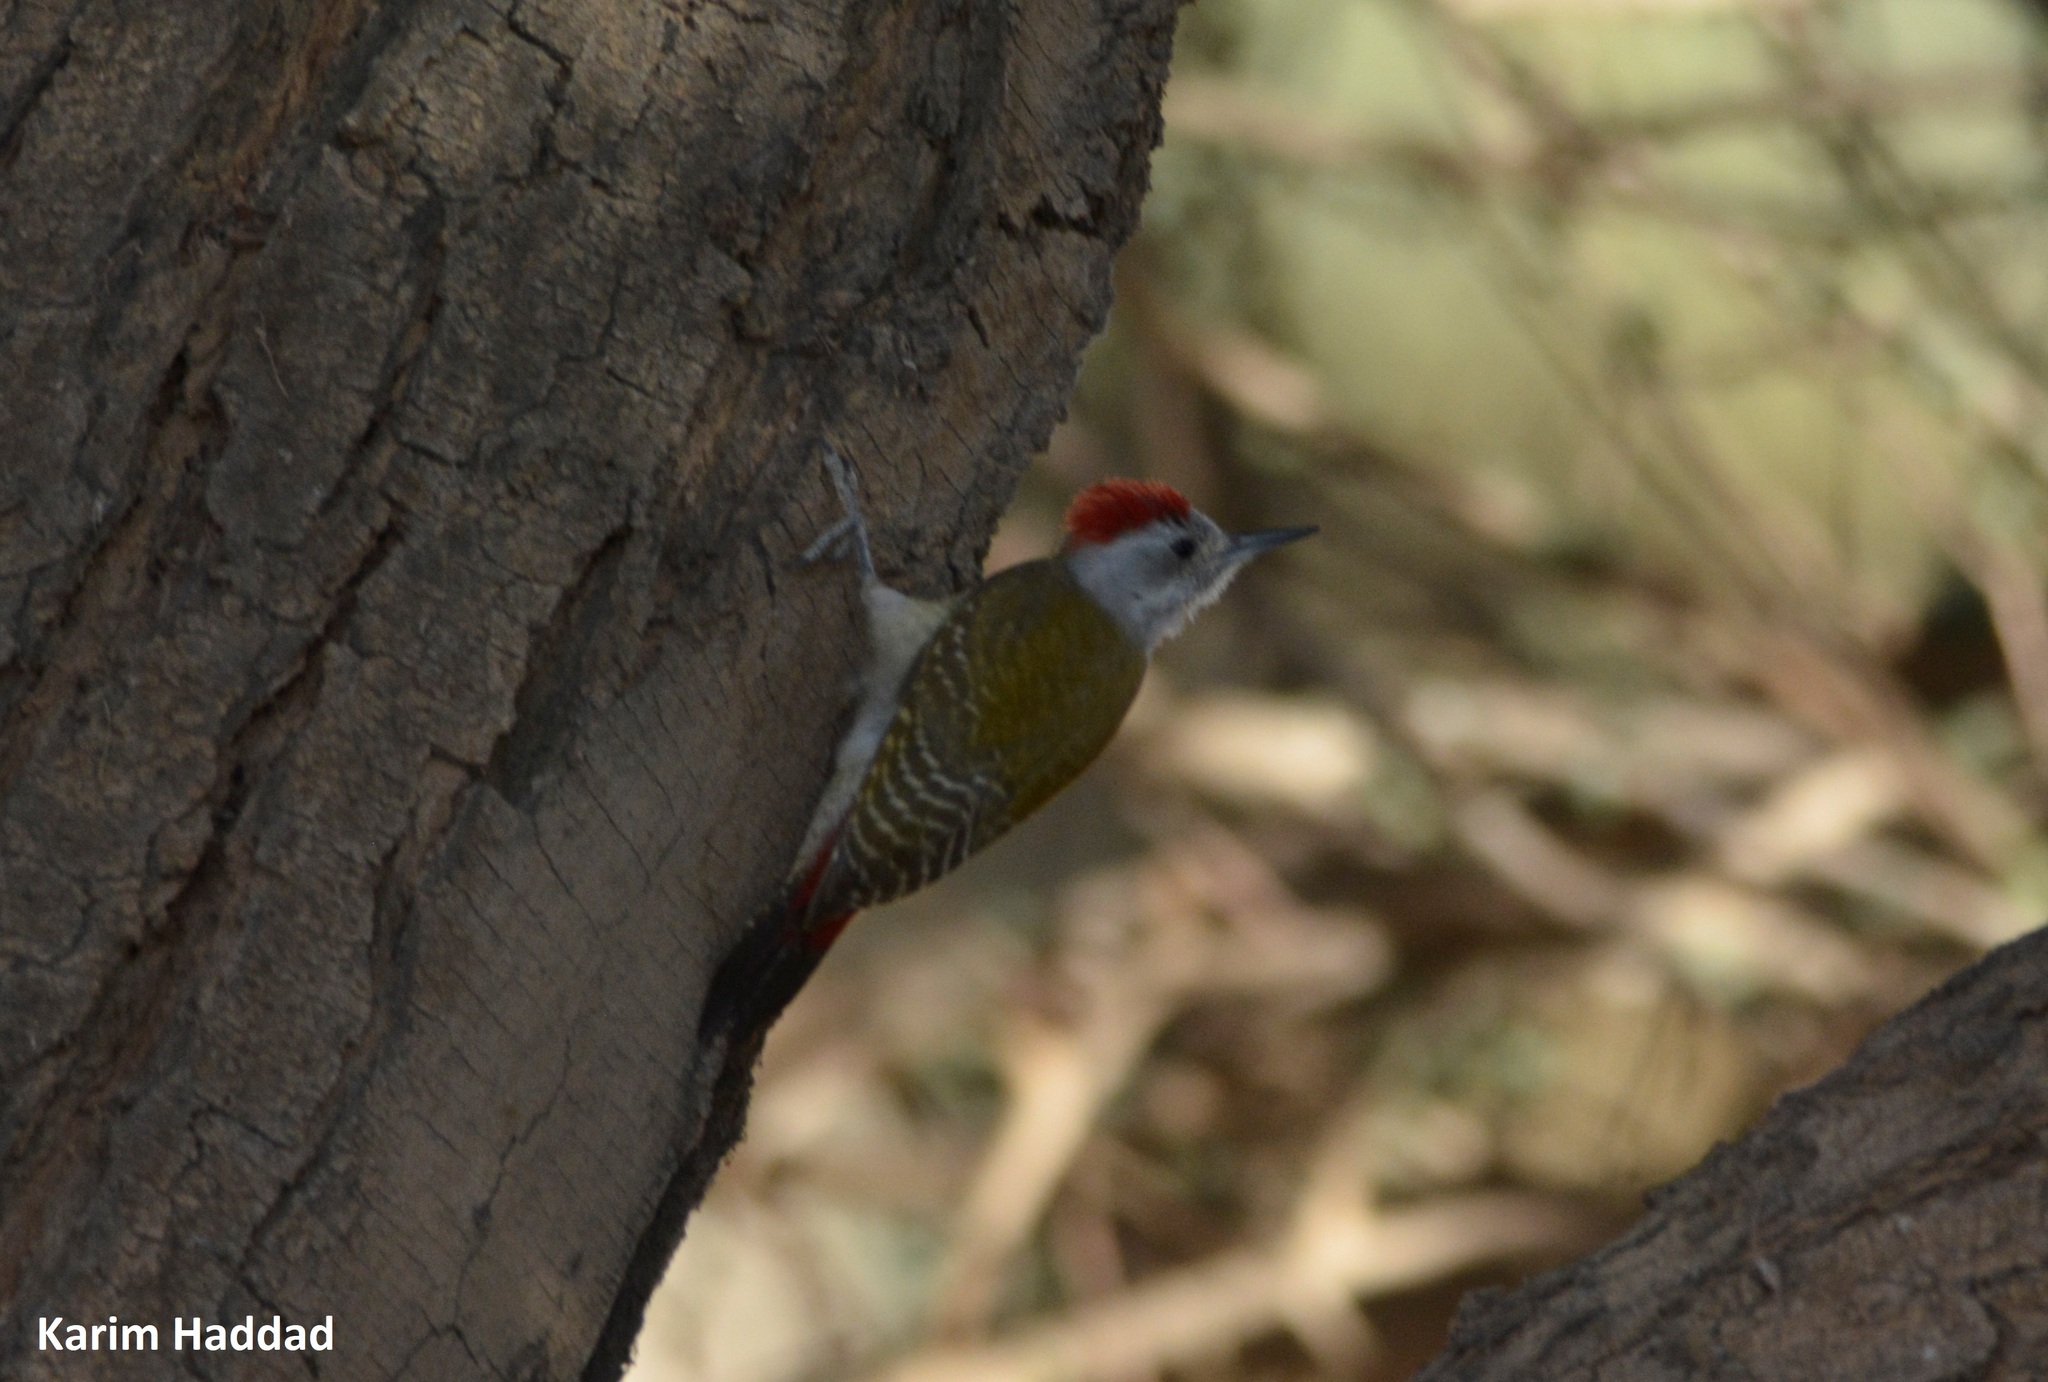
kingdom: Animalia
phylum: Chordata
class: Aves
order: Piciformes
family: Picidae
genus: Dendropicos
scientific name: Dendropicos goertae
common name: African grey woodpecker
